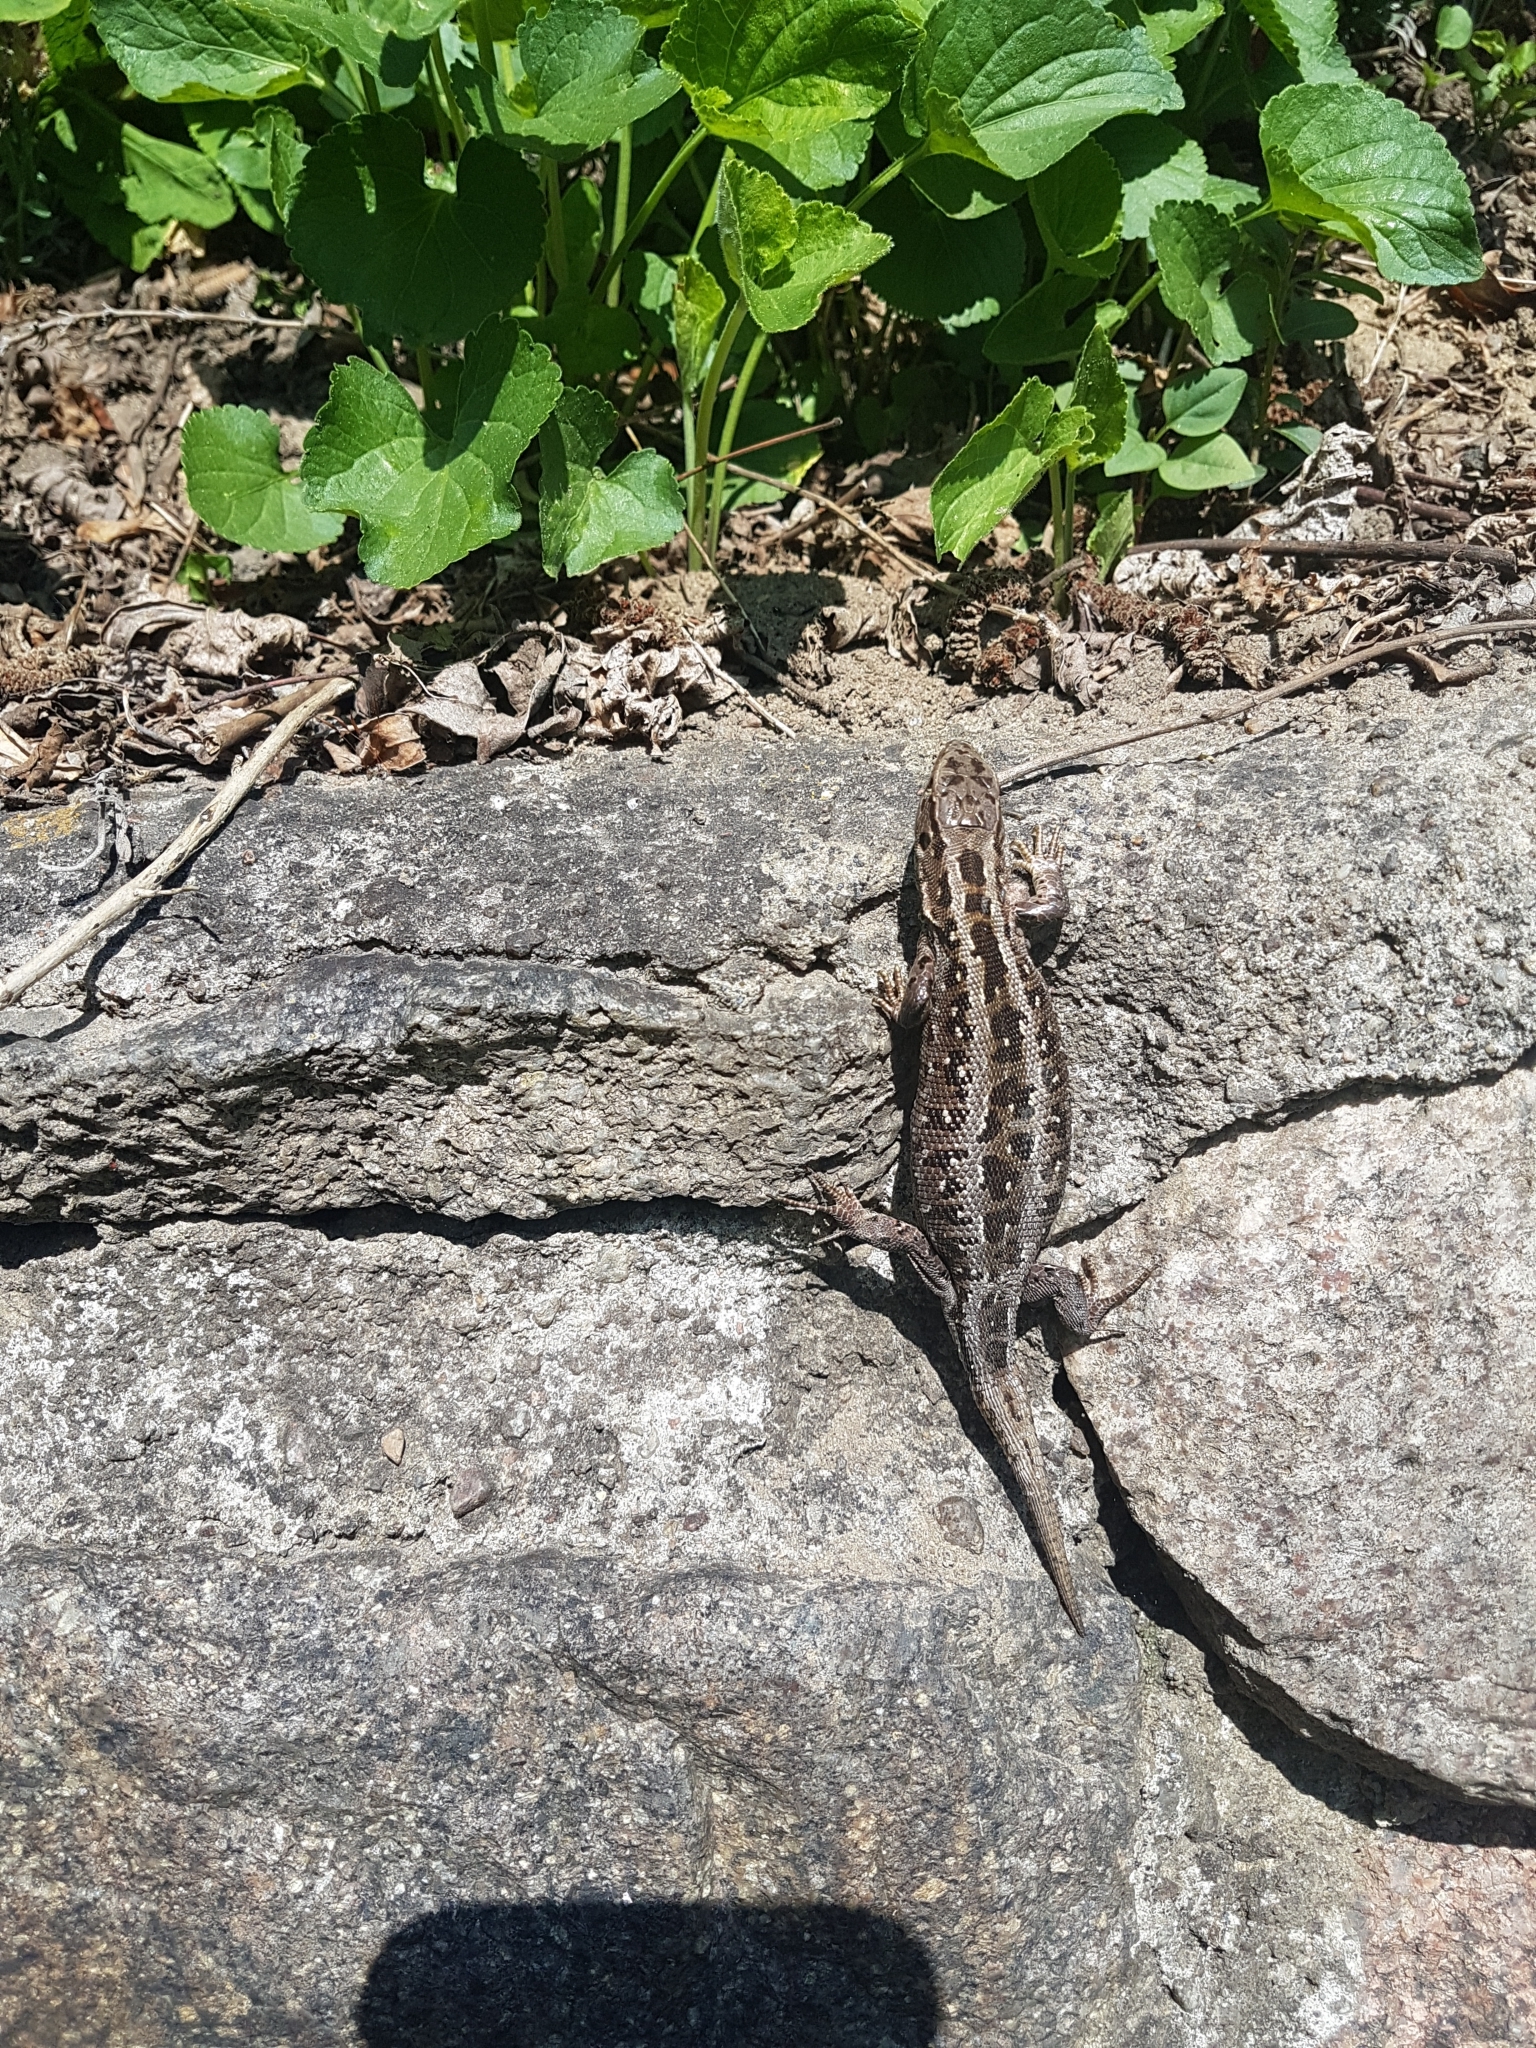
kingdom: Animalia
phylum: Chordata
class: Squamata
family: Lacertidae
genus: Lacerta
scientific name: Lacerta agilis
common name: Sand lizard
